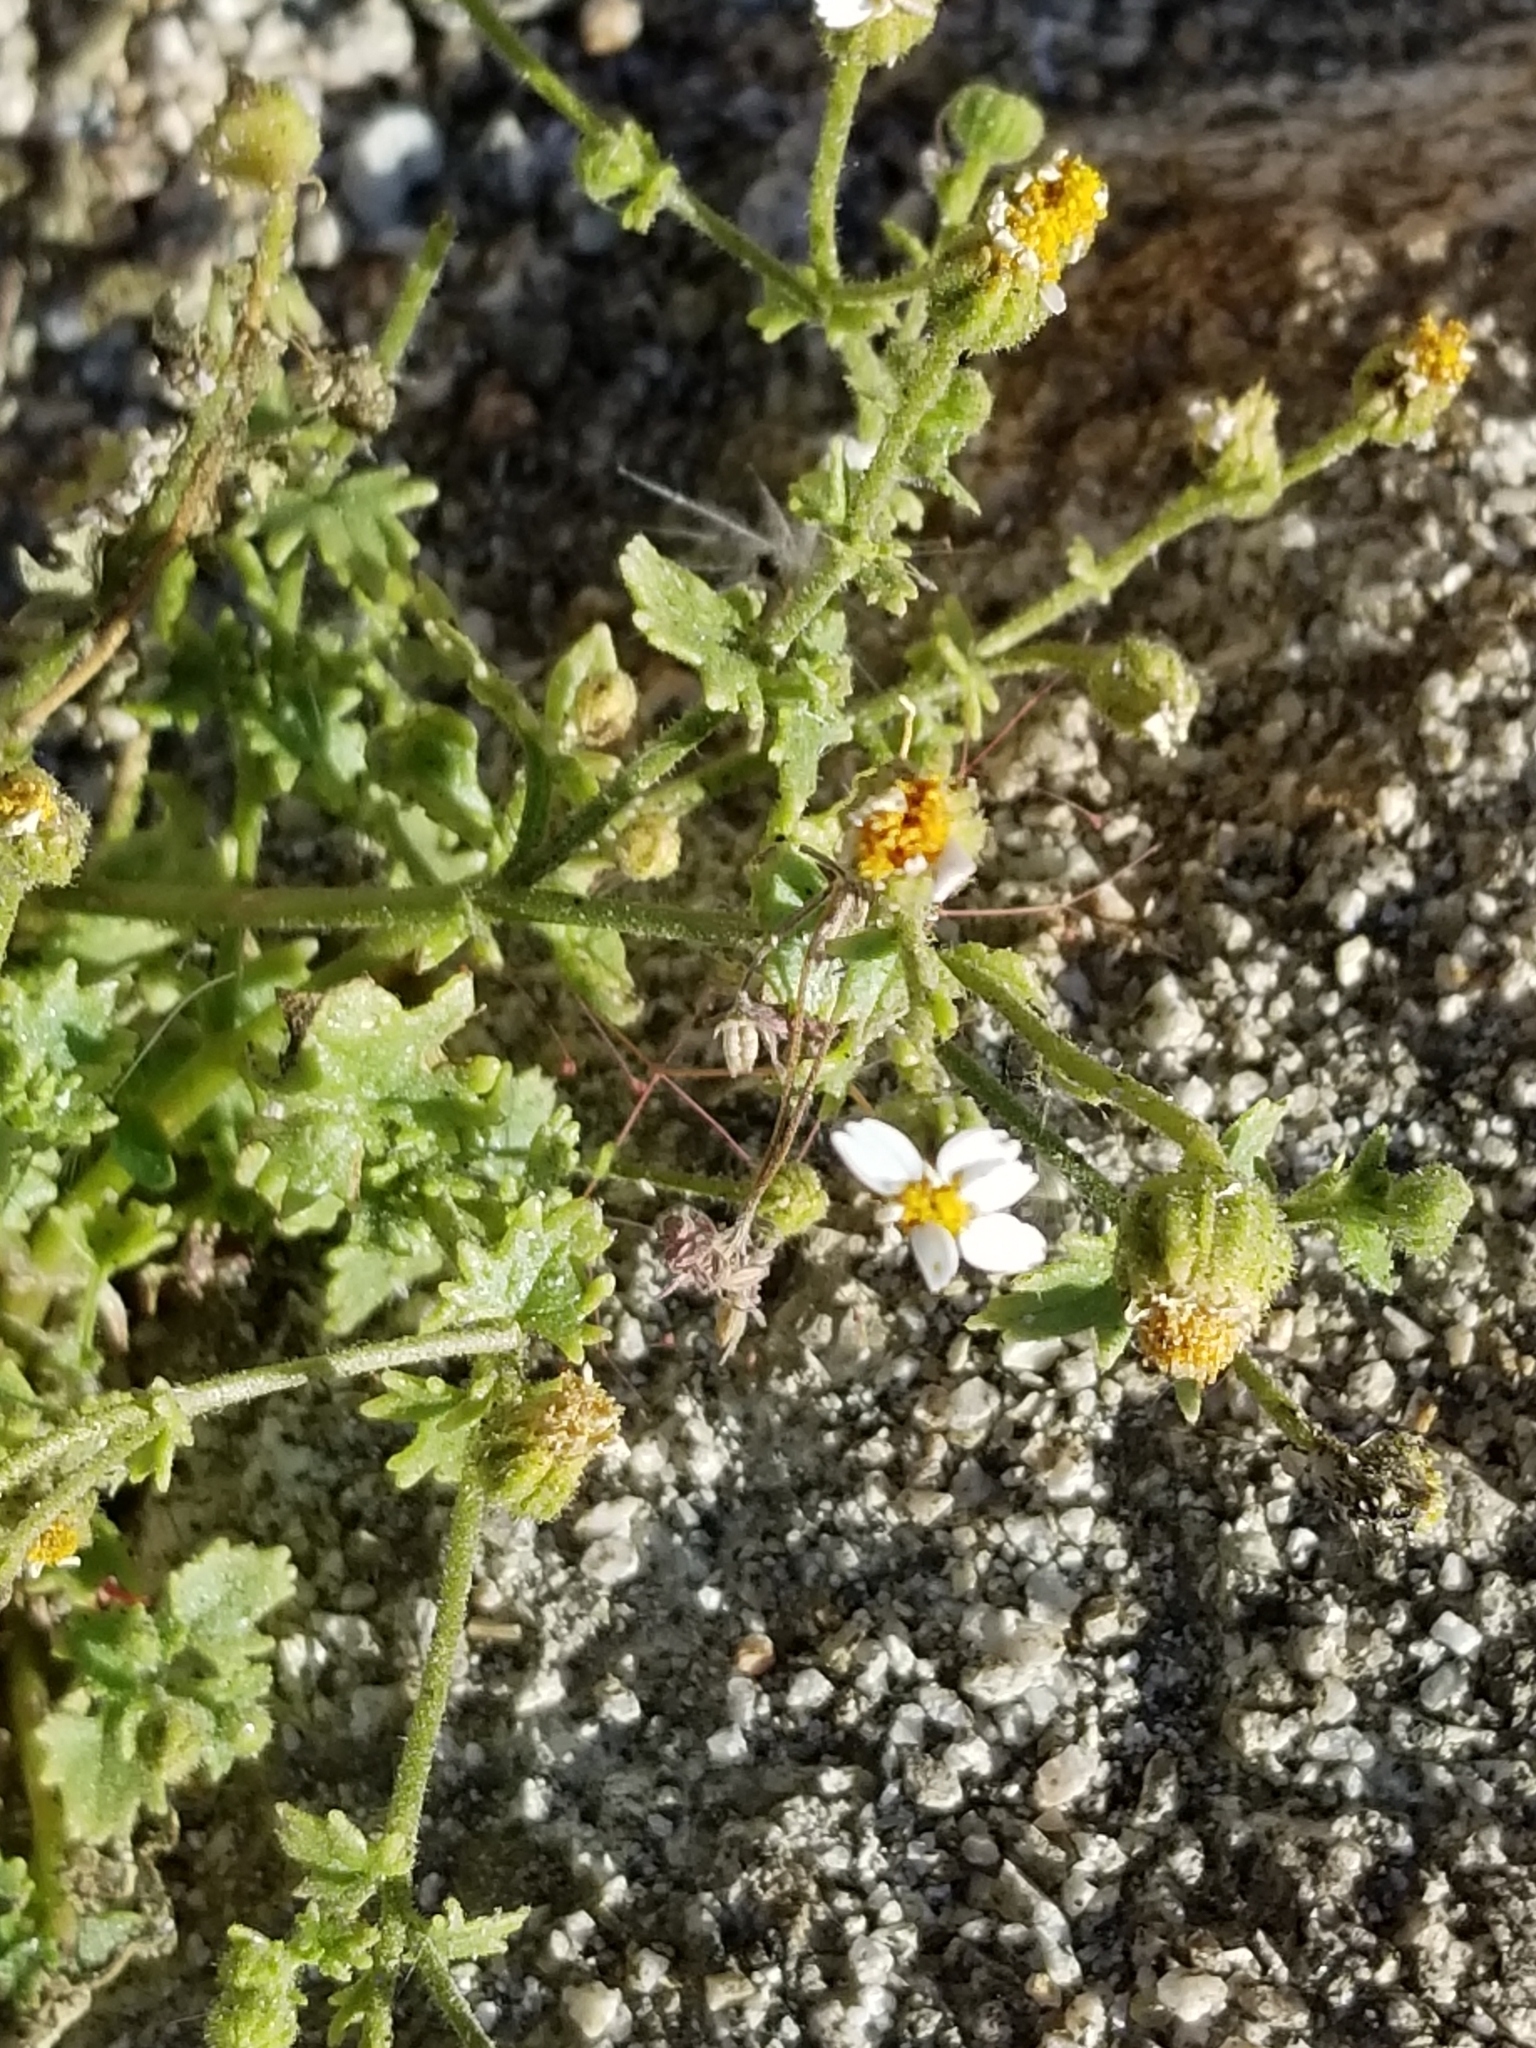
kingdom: Plantae
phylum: Tracheophyta
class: Magnoliopsida
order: Asterales
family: Asteraceae
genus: Laphamia
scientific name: Laphamia emoryi
